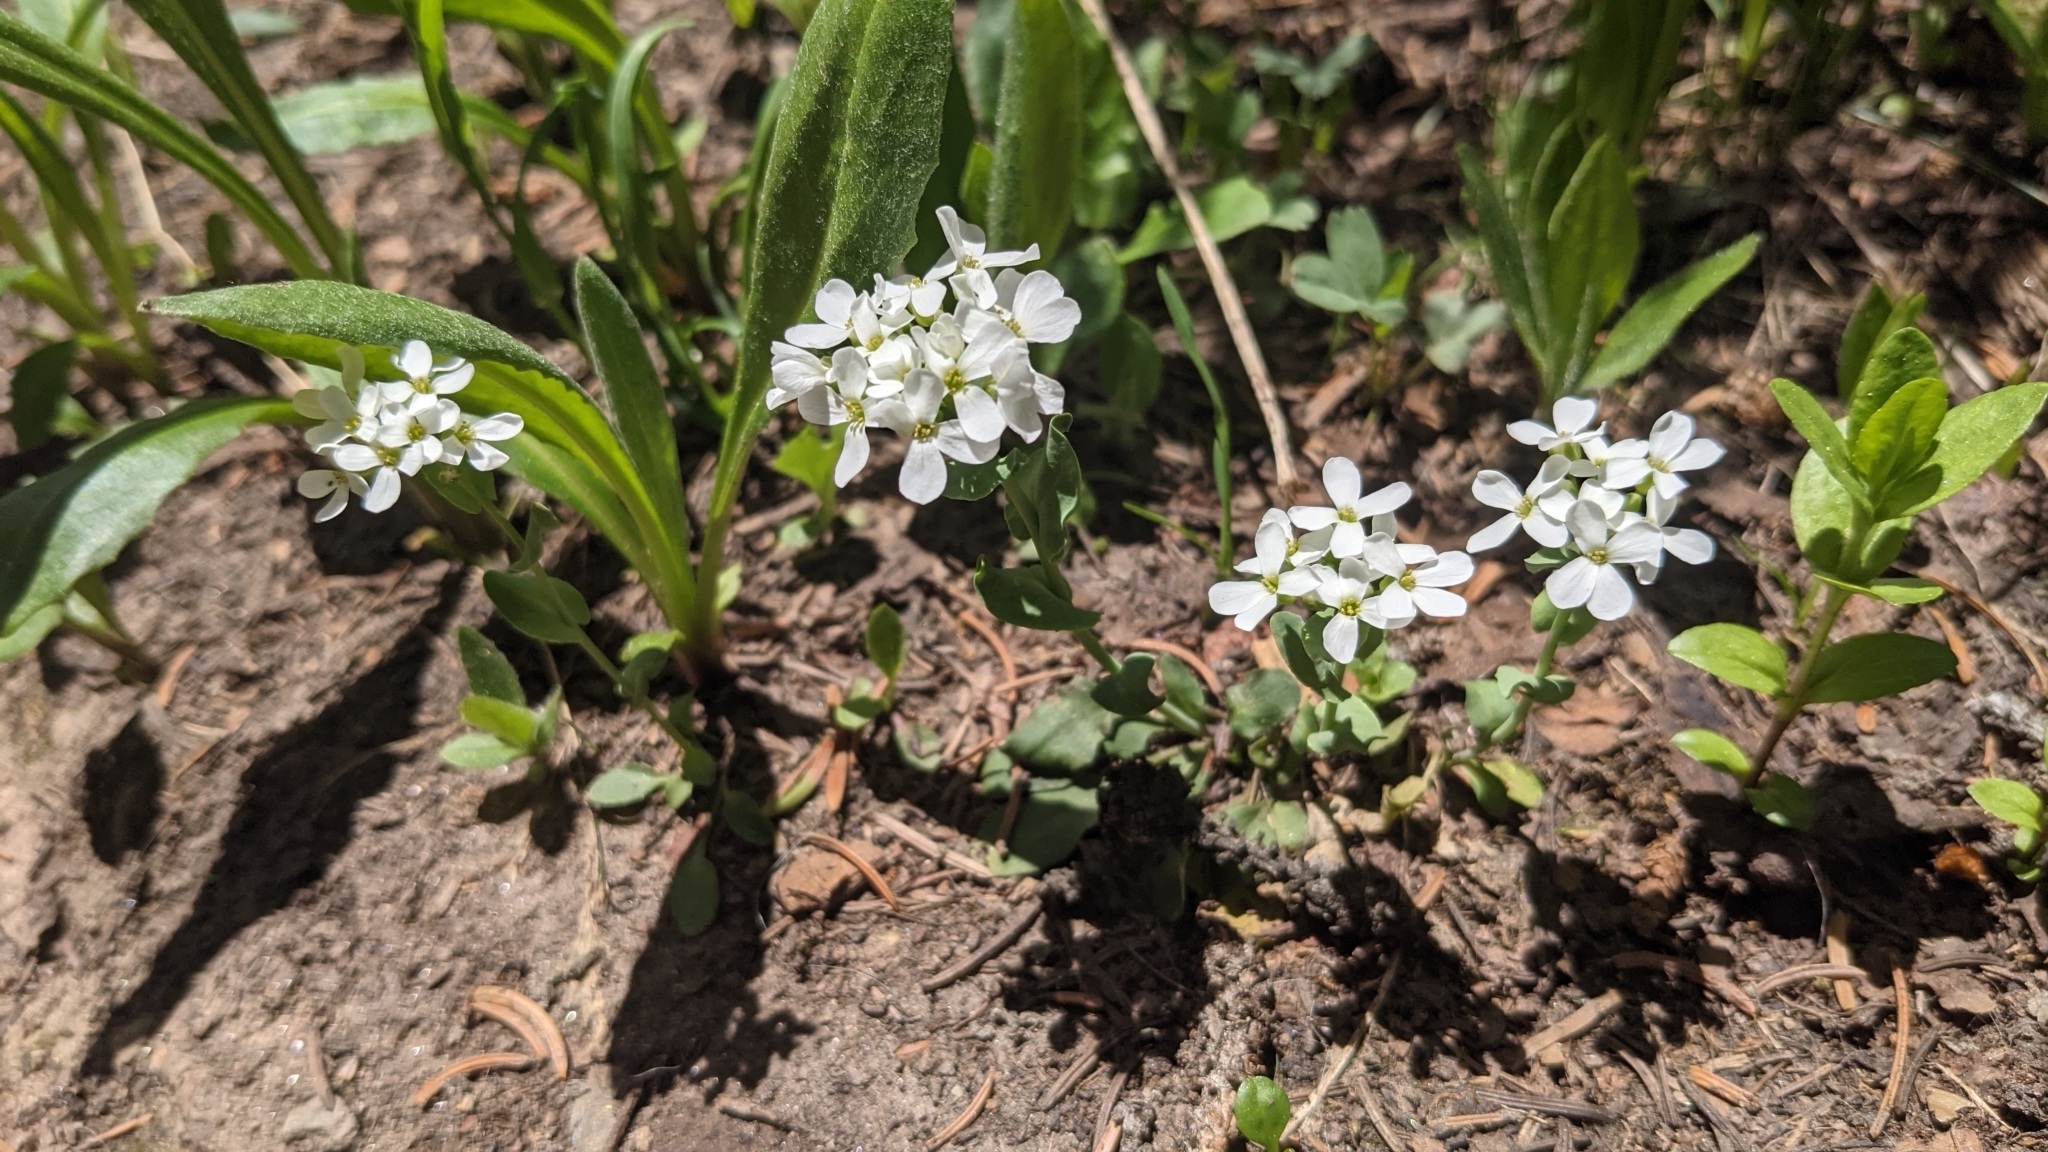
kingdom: Plantae
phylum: Tracheophyta
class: Magnoliopsida
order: Brassicales
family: Brassicaceae
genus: Noccaea
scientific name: Noccaea fendleri
